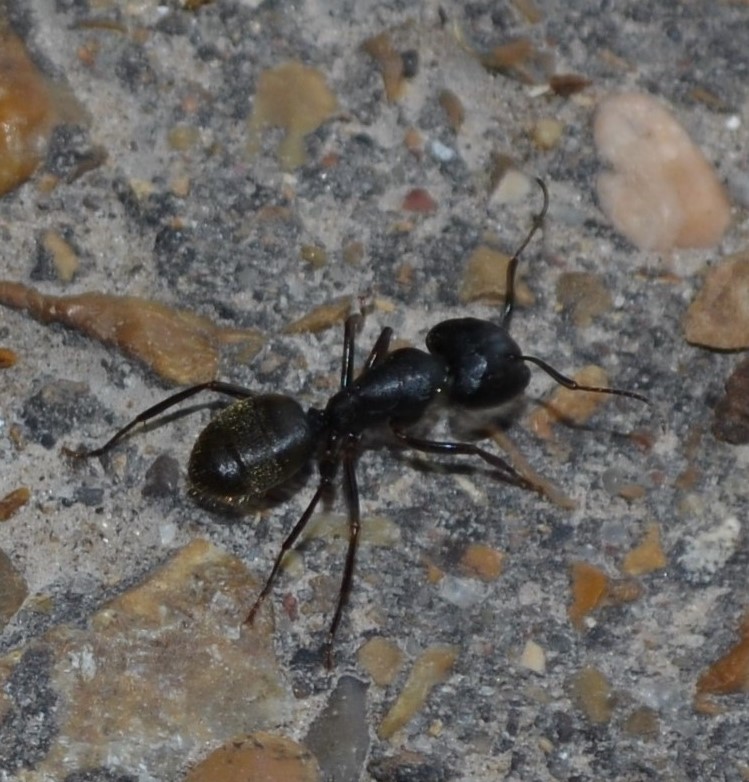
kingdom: Animalia
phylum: Arthropoda
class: Insecta
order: Hymenoptera
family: Formicidae
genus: Camponotus
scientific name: Camponotus pennsylvanicus
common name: Black carpenter ant
